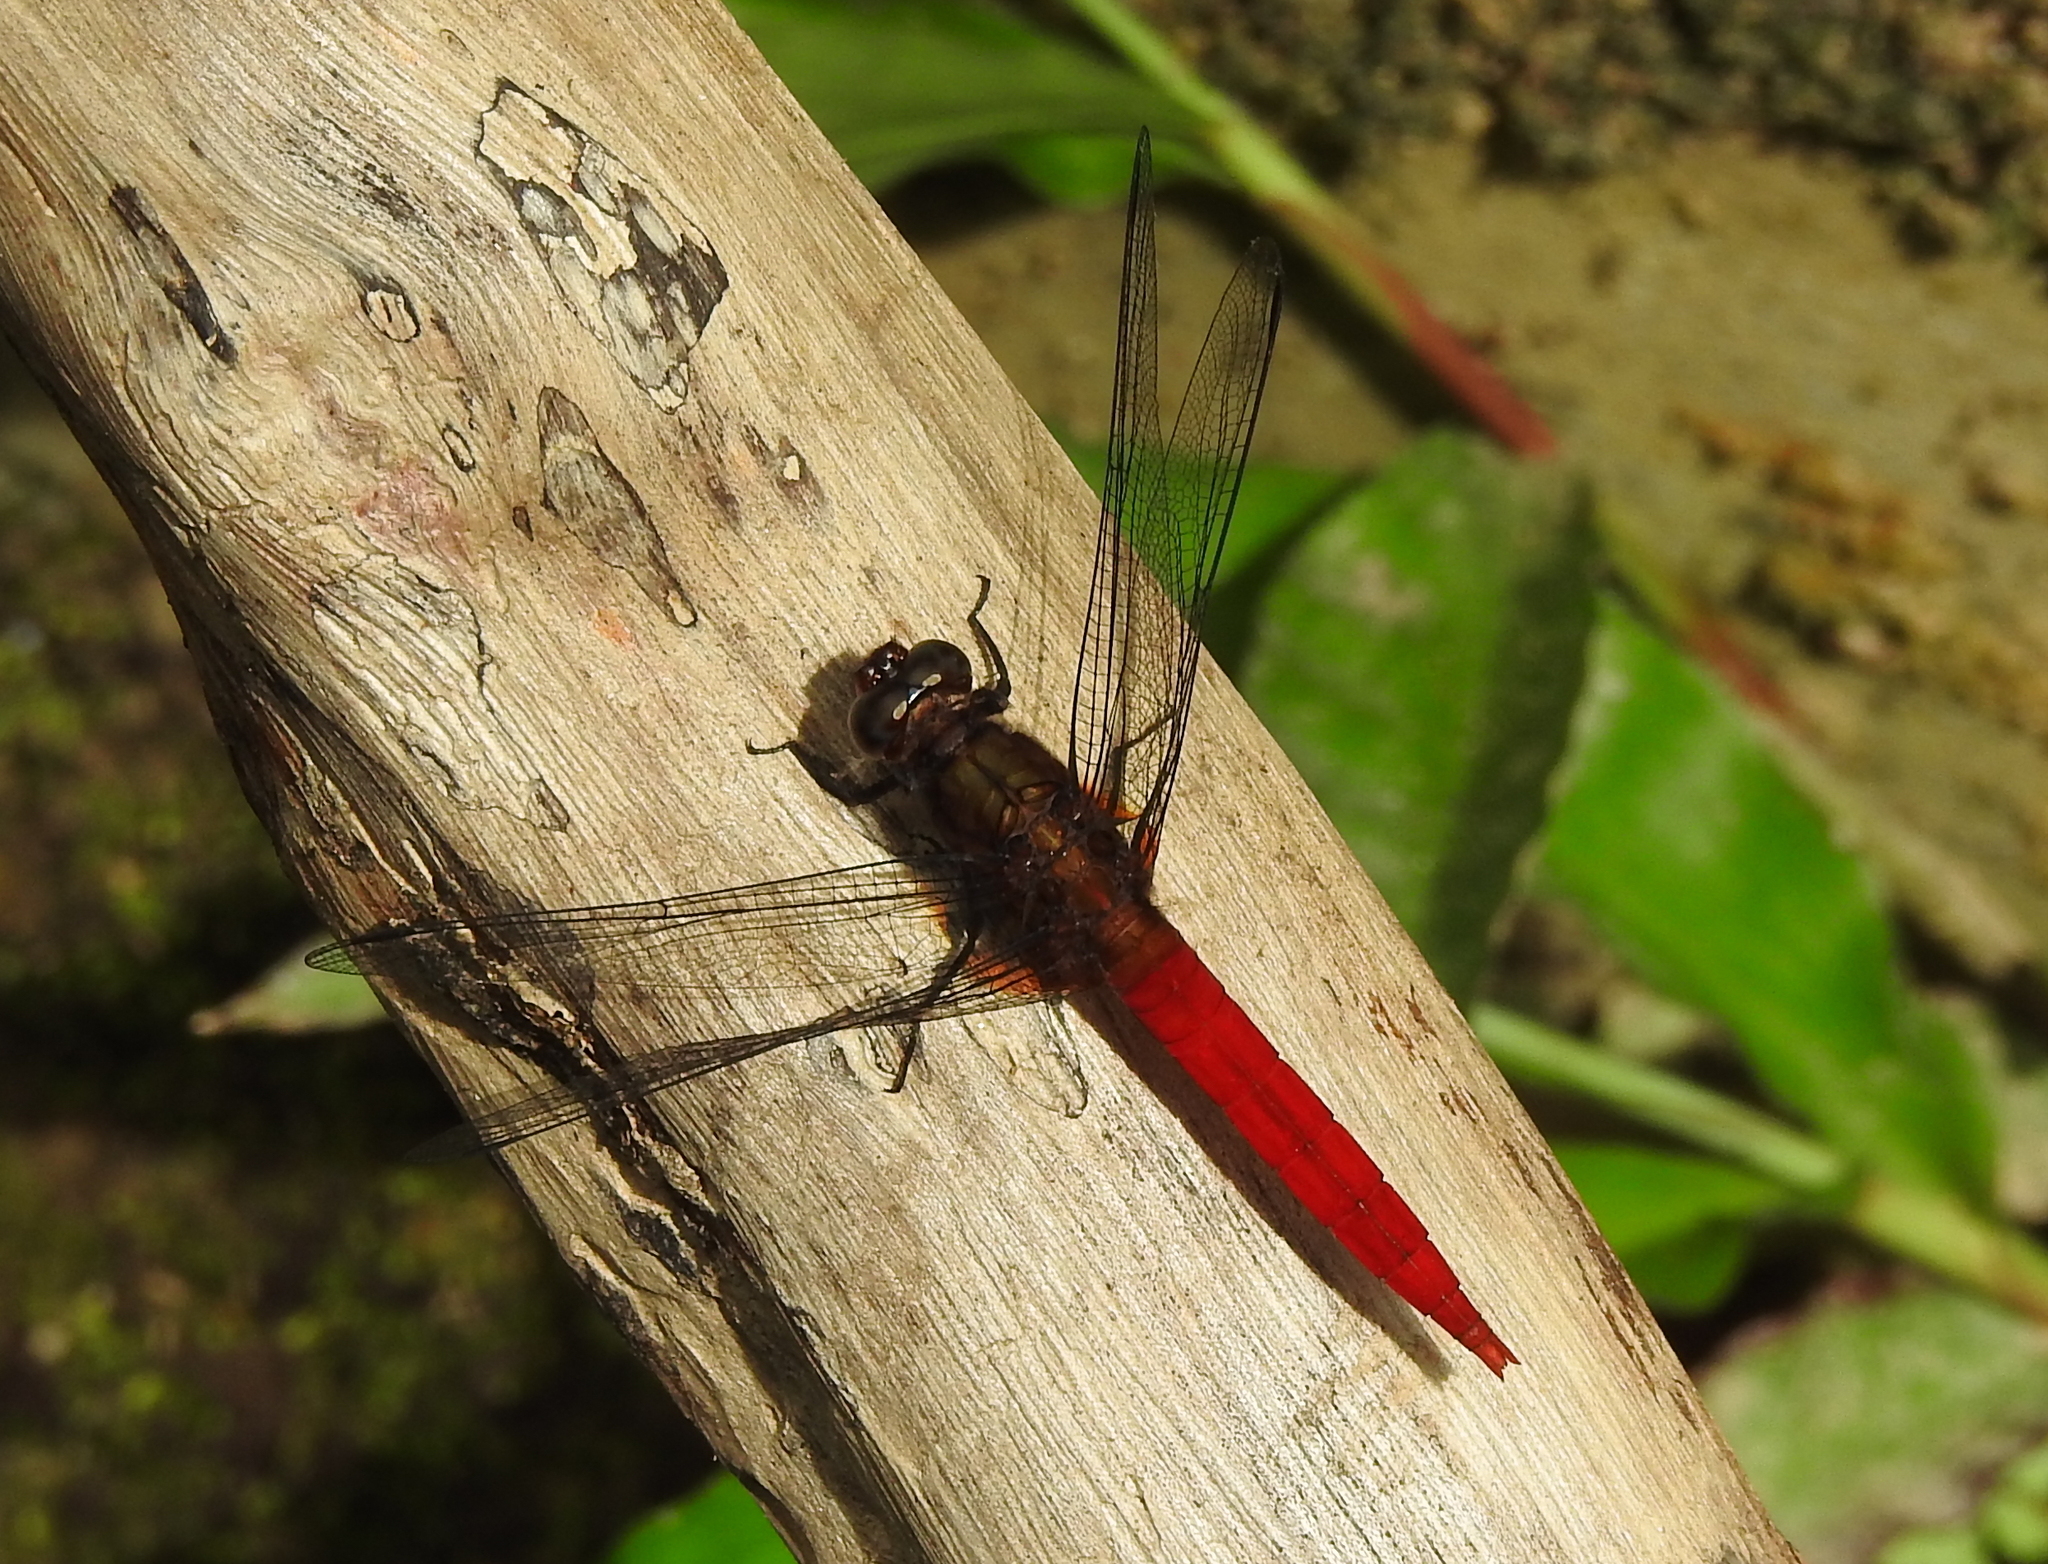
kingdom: Animalia
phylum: Arthropoda
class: Insecta
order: Odonata
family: Libellulidae
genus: Orthetrum
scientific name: Orthetrum chrysis
